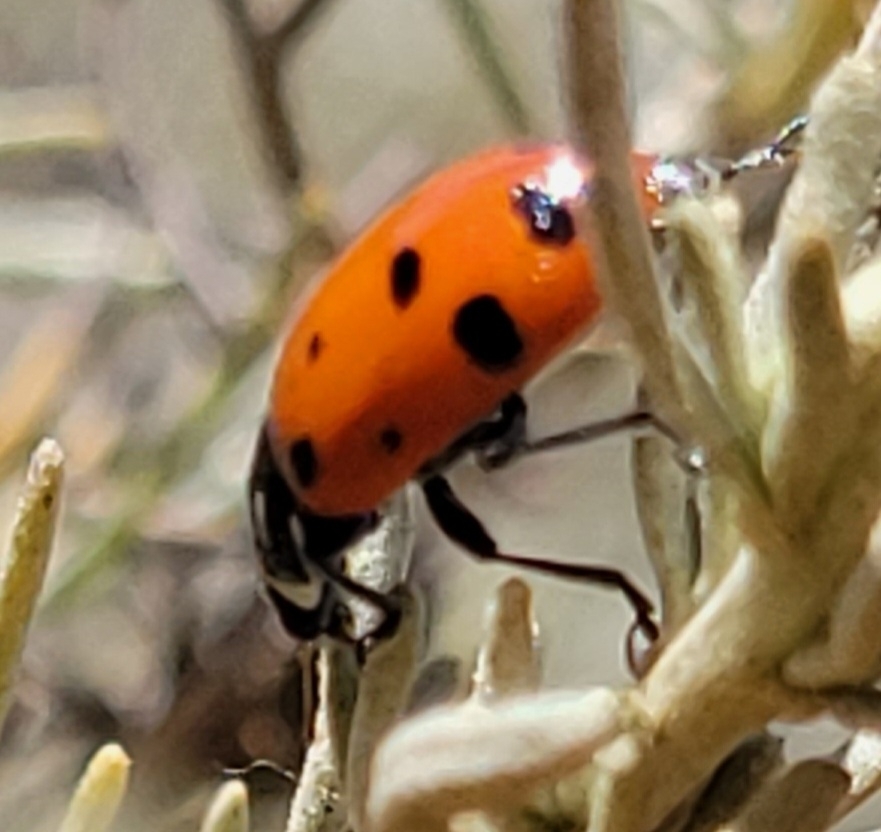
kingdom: Animalia
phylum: Arthropoda
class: Insecta
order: Coleoptera
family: Coccinellidae
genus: Hippodamia
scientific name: Hippodamia convergens
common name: Convergent lady beetle
